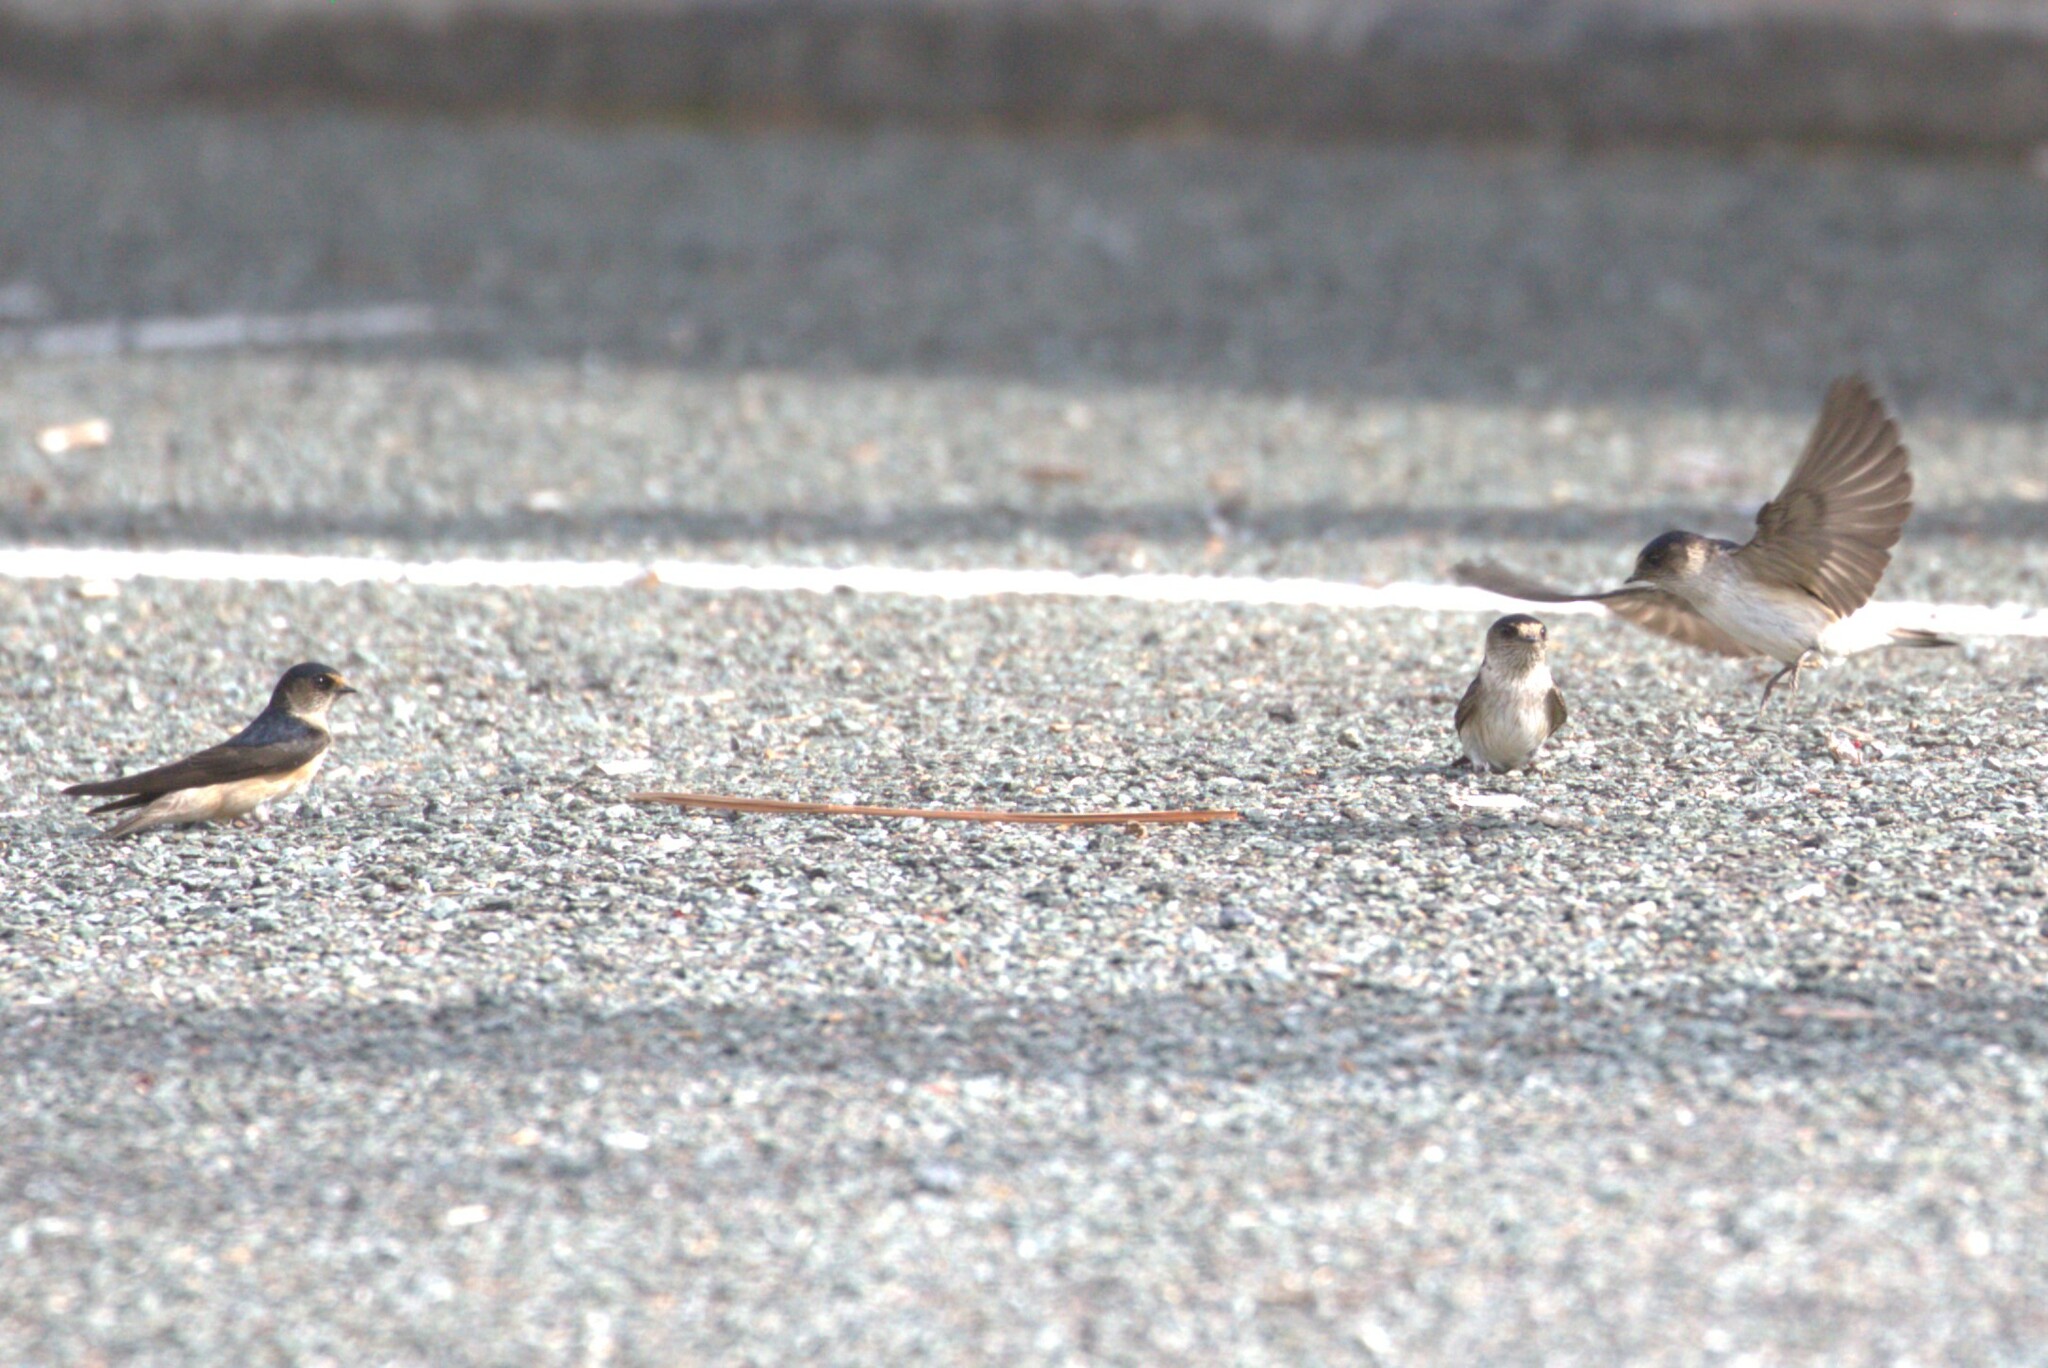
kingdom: Animalia
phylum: Chordata
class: Aves
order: Passeriformes
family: Hirundinidae
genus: Petrochelidon
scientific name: Petrochelidon nigricans
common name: Tree martin
